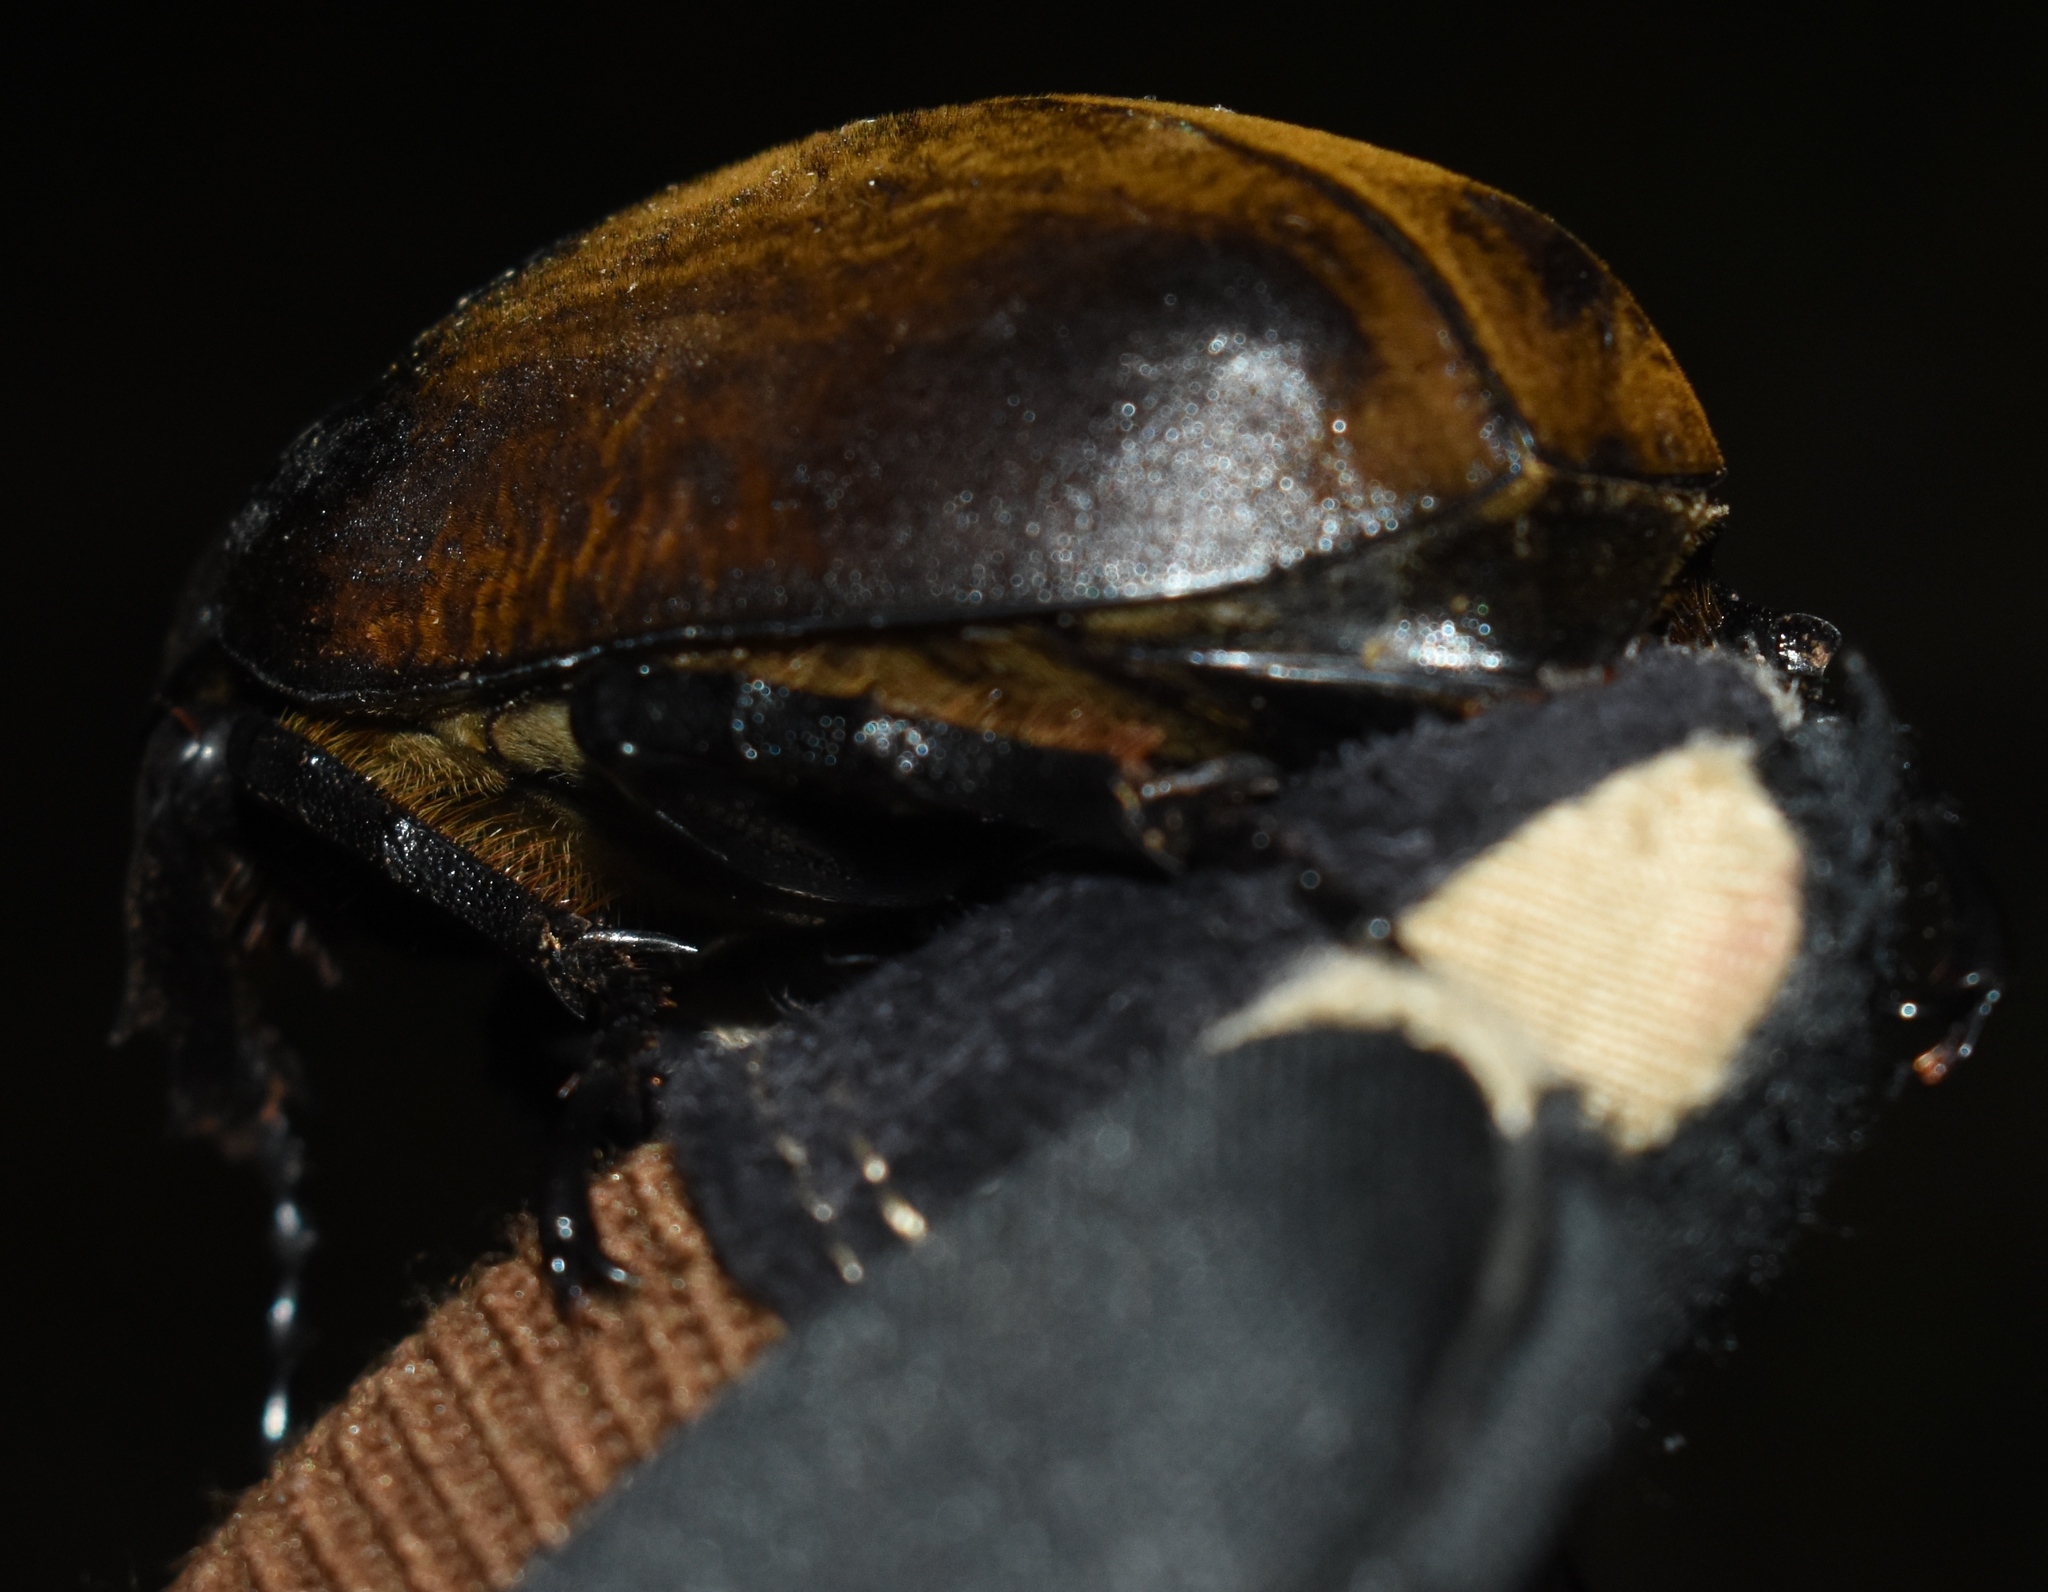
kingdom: Animalia
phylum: Arthropoda
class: Insecta
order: Coleoptera
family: Scarabaeidae
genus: Megasoma
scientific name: Megasoma elephas
